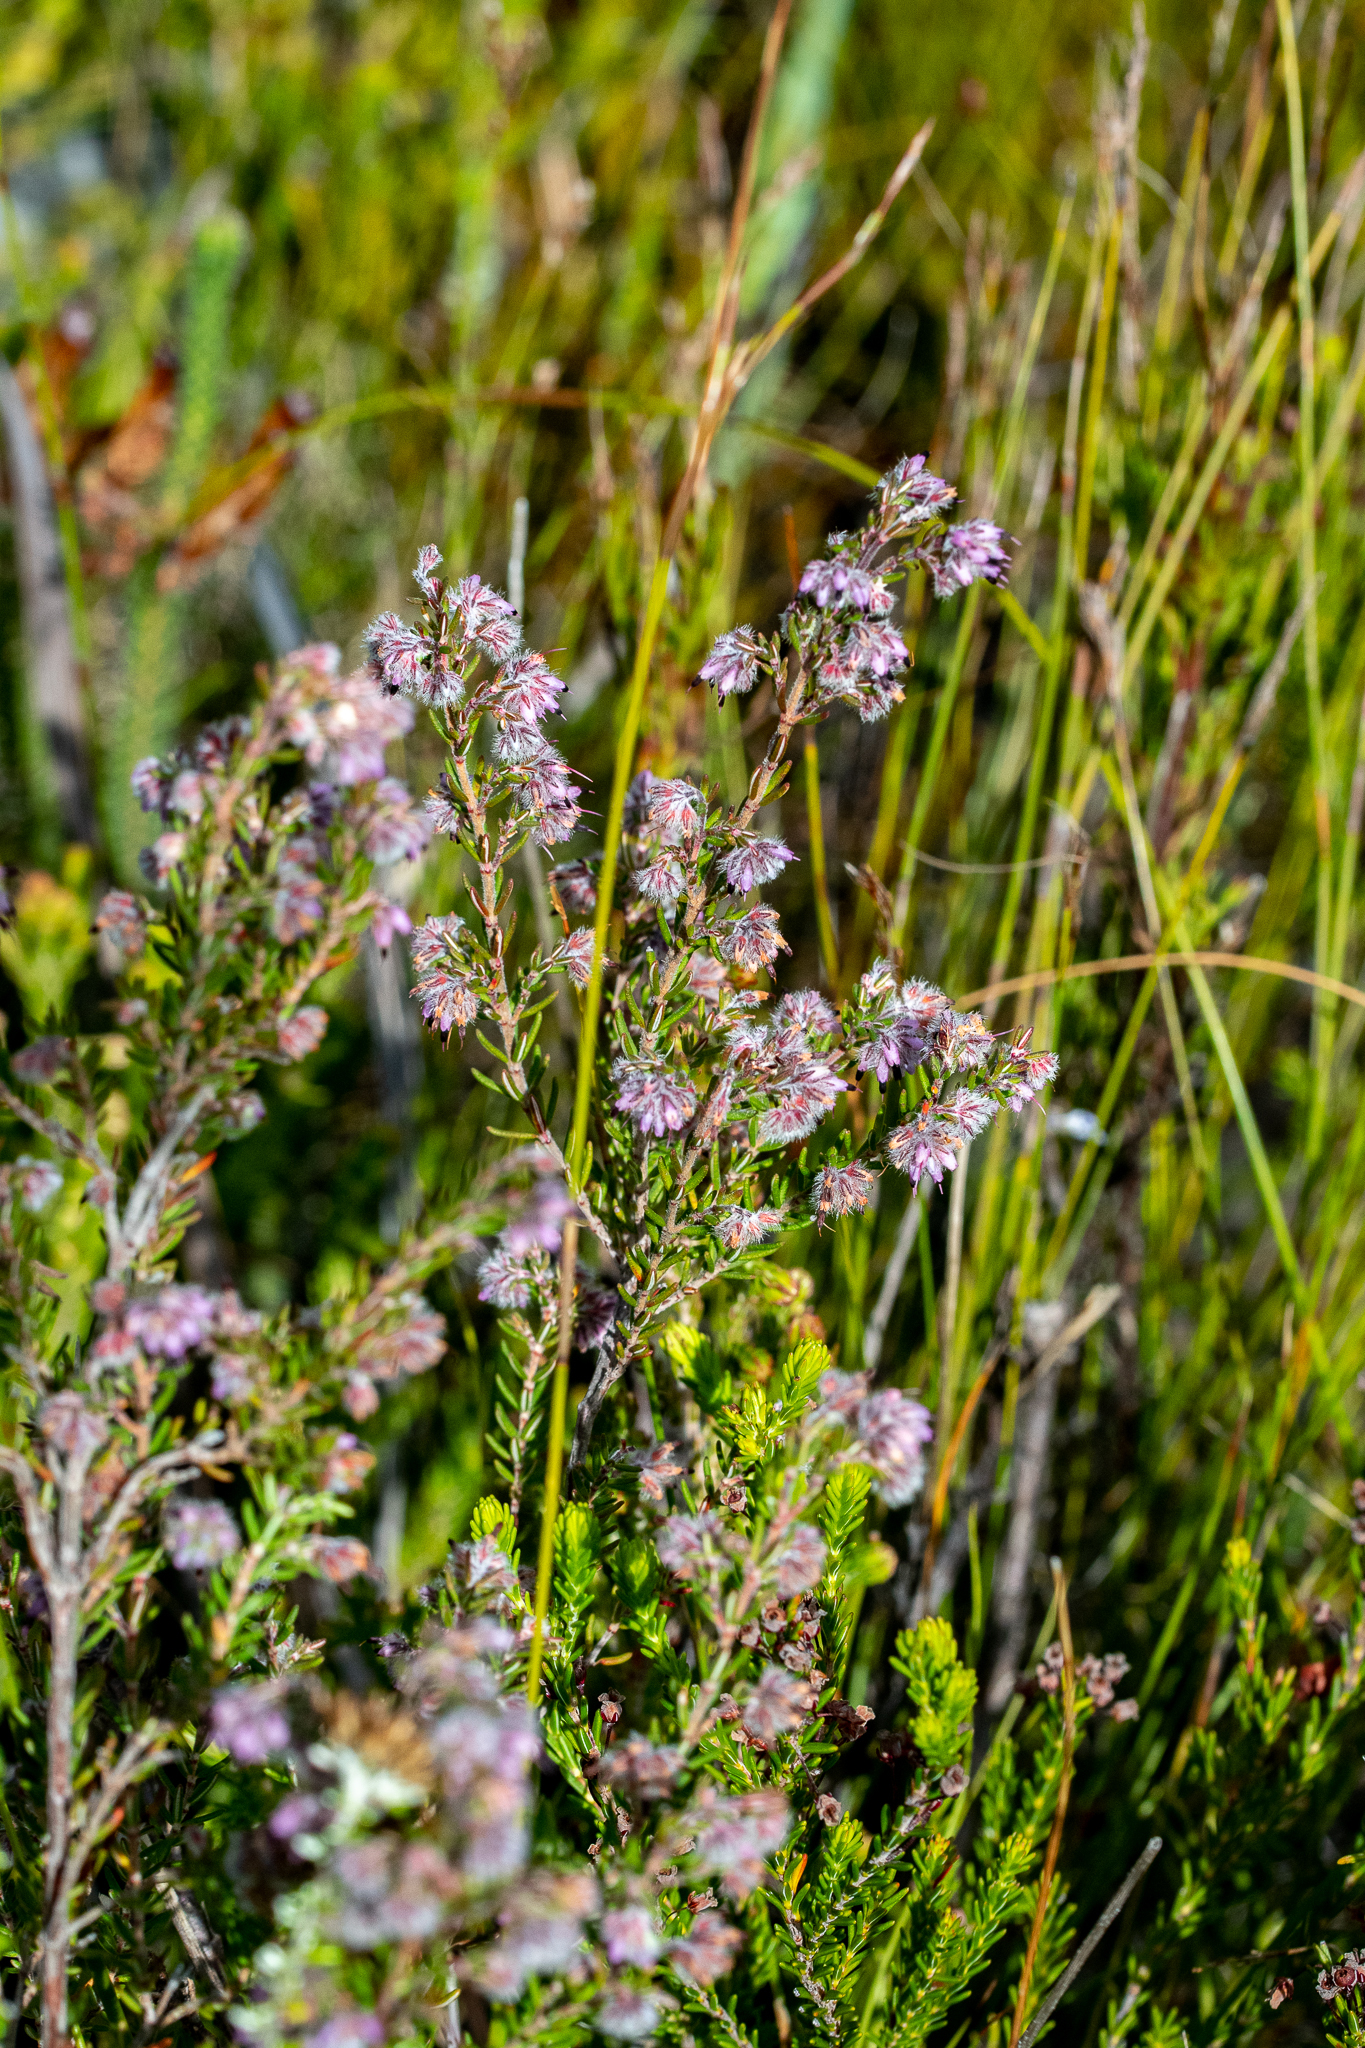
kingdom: Plantae
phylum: Tracheophyta
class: Magnoliopsida
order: Ericales
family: Ericaceae
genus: Erica
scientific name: Erica eriocephala
